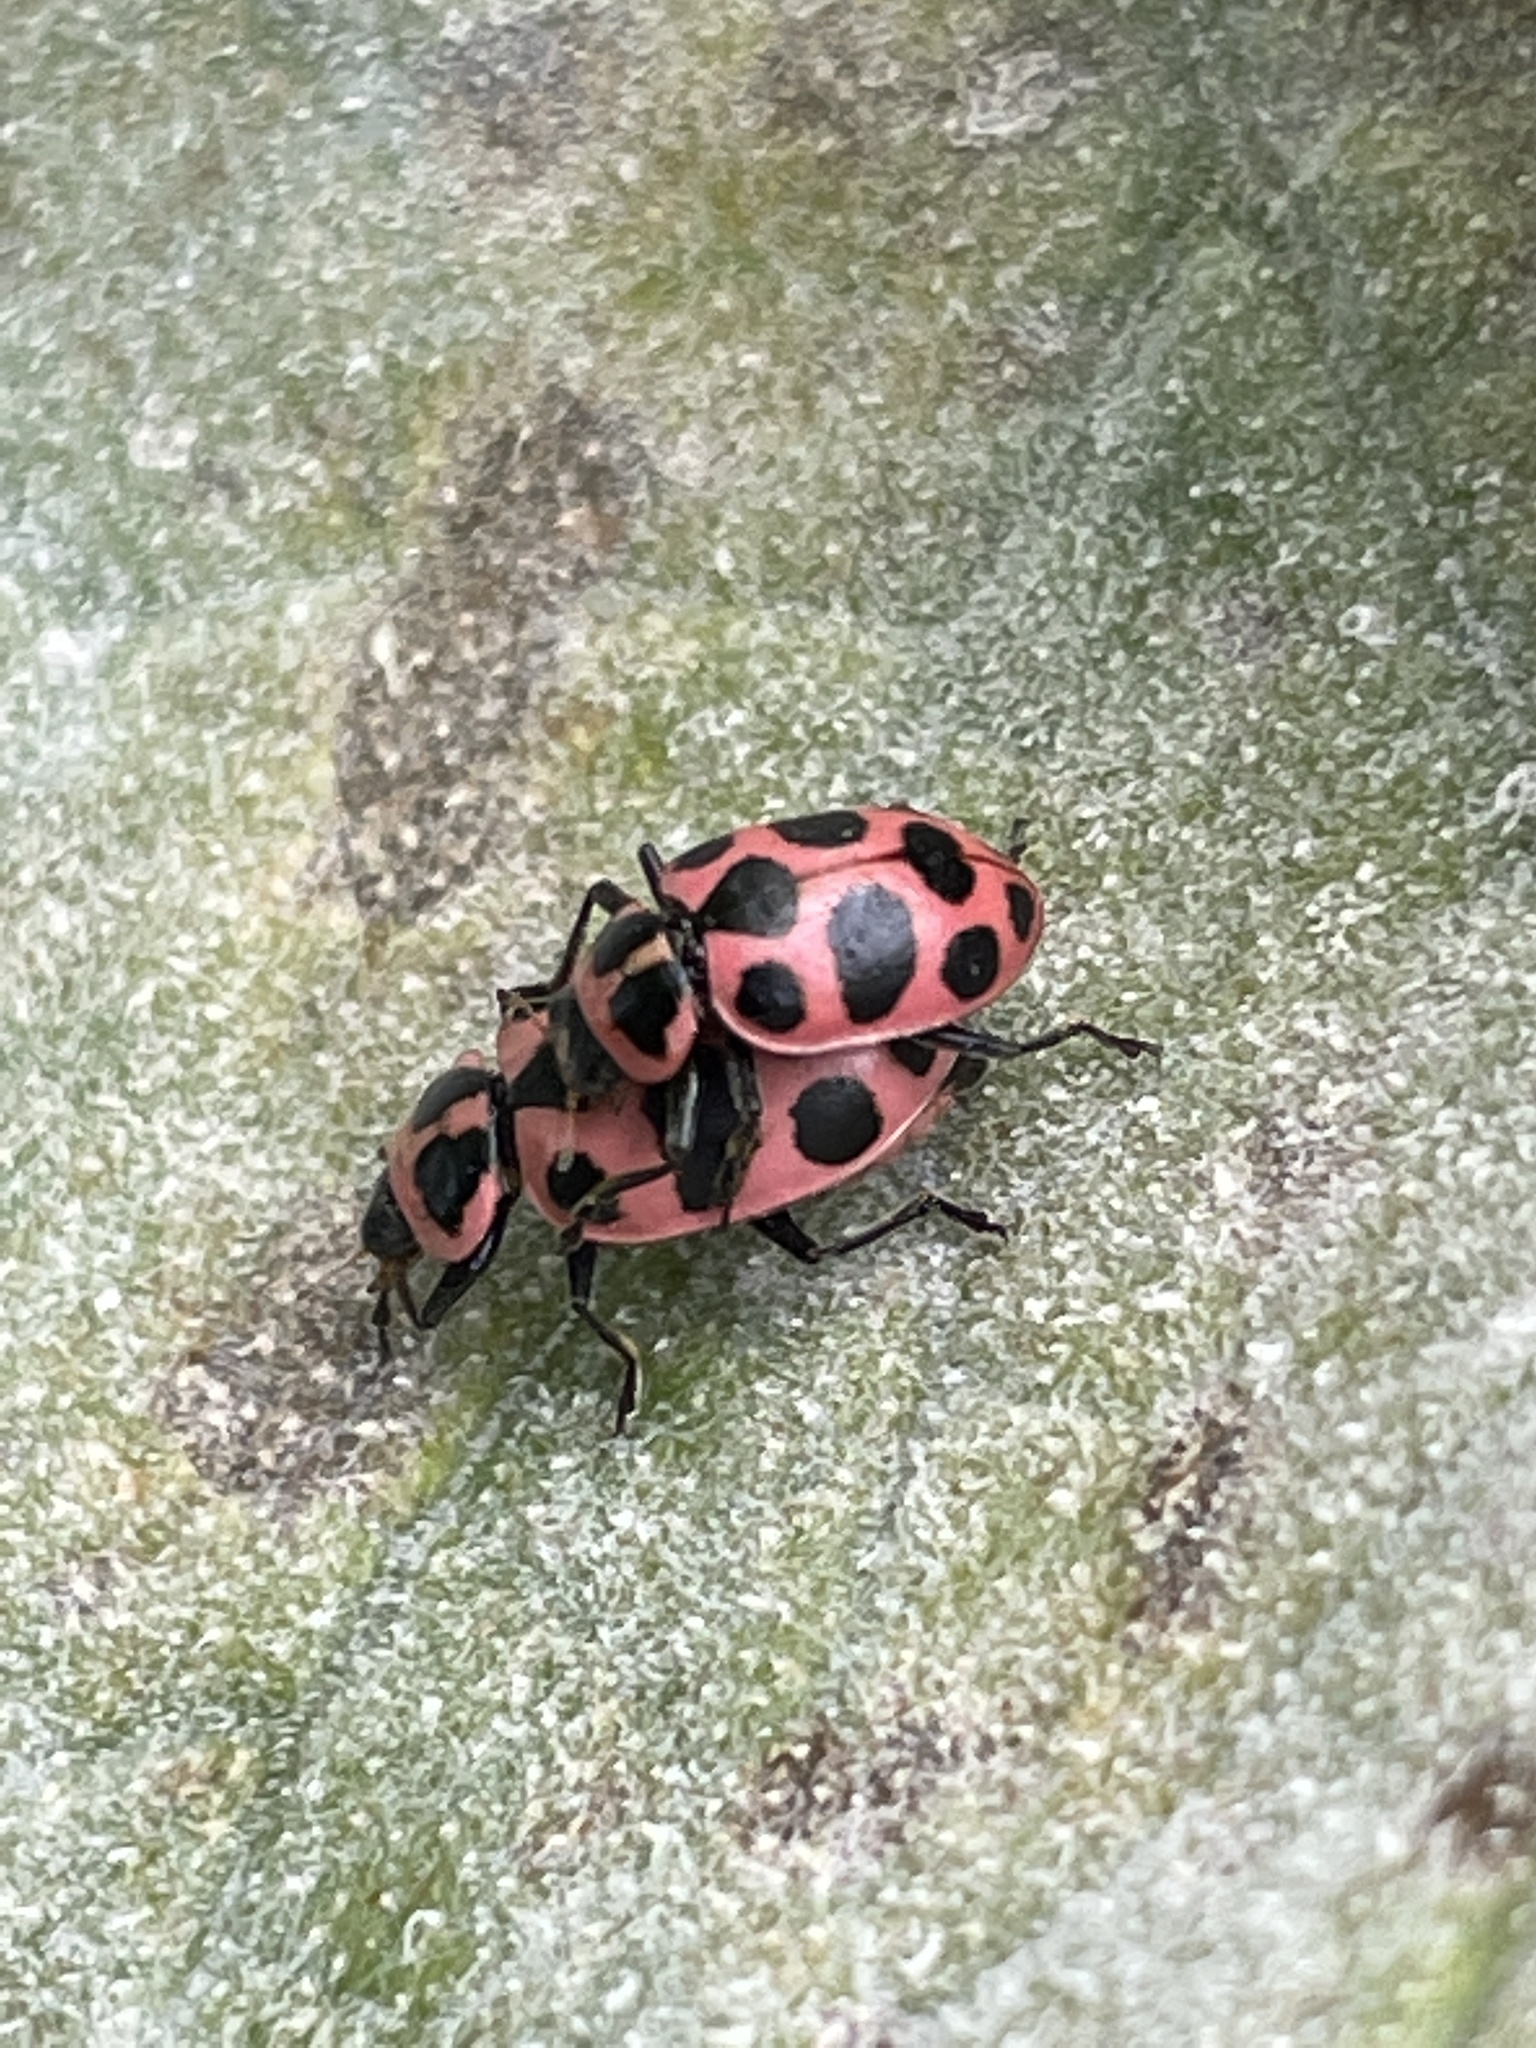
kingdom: Animalia
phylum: Arthropoda
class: Insecta
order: Coleoptera
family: Coccinellidae
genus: Coleomegilla
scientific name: Coleomegilla maculata
